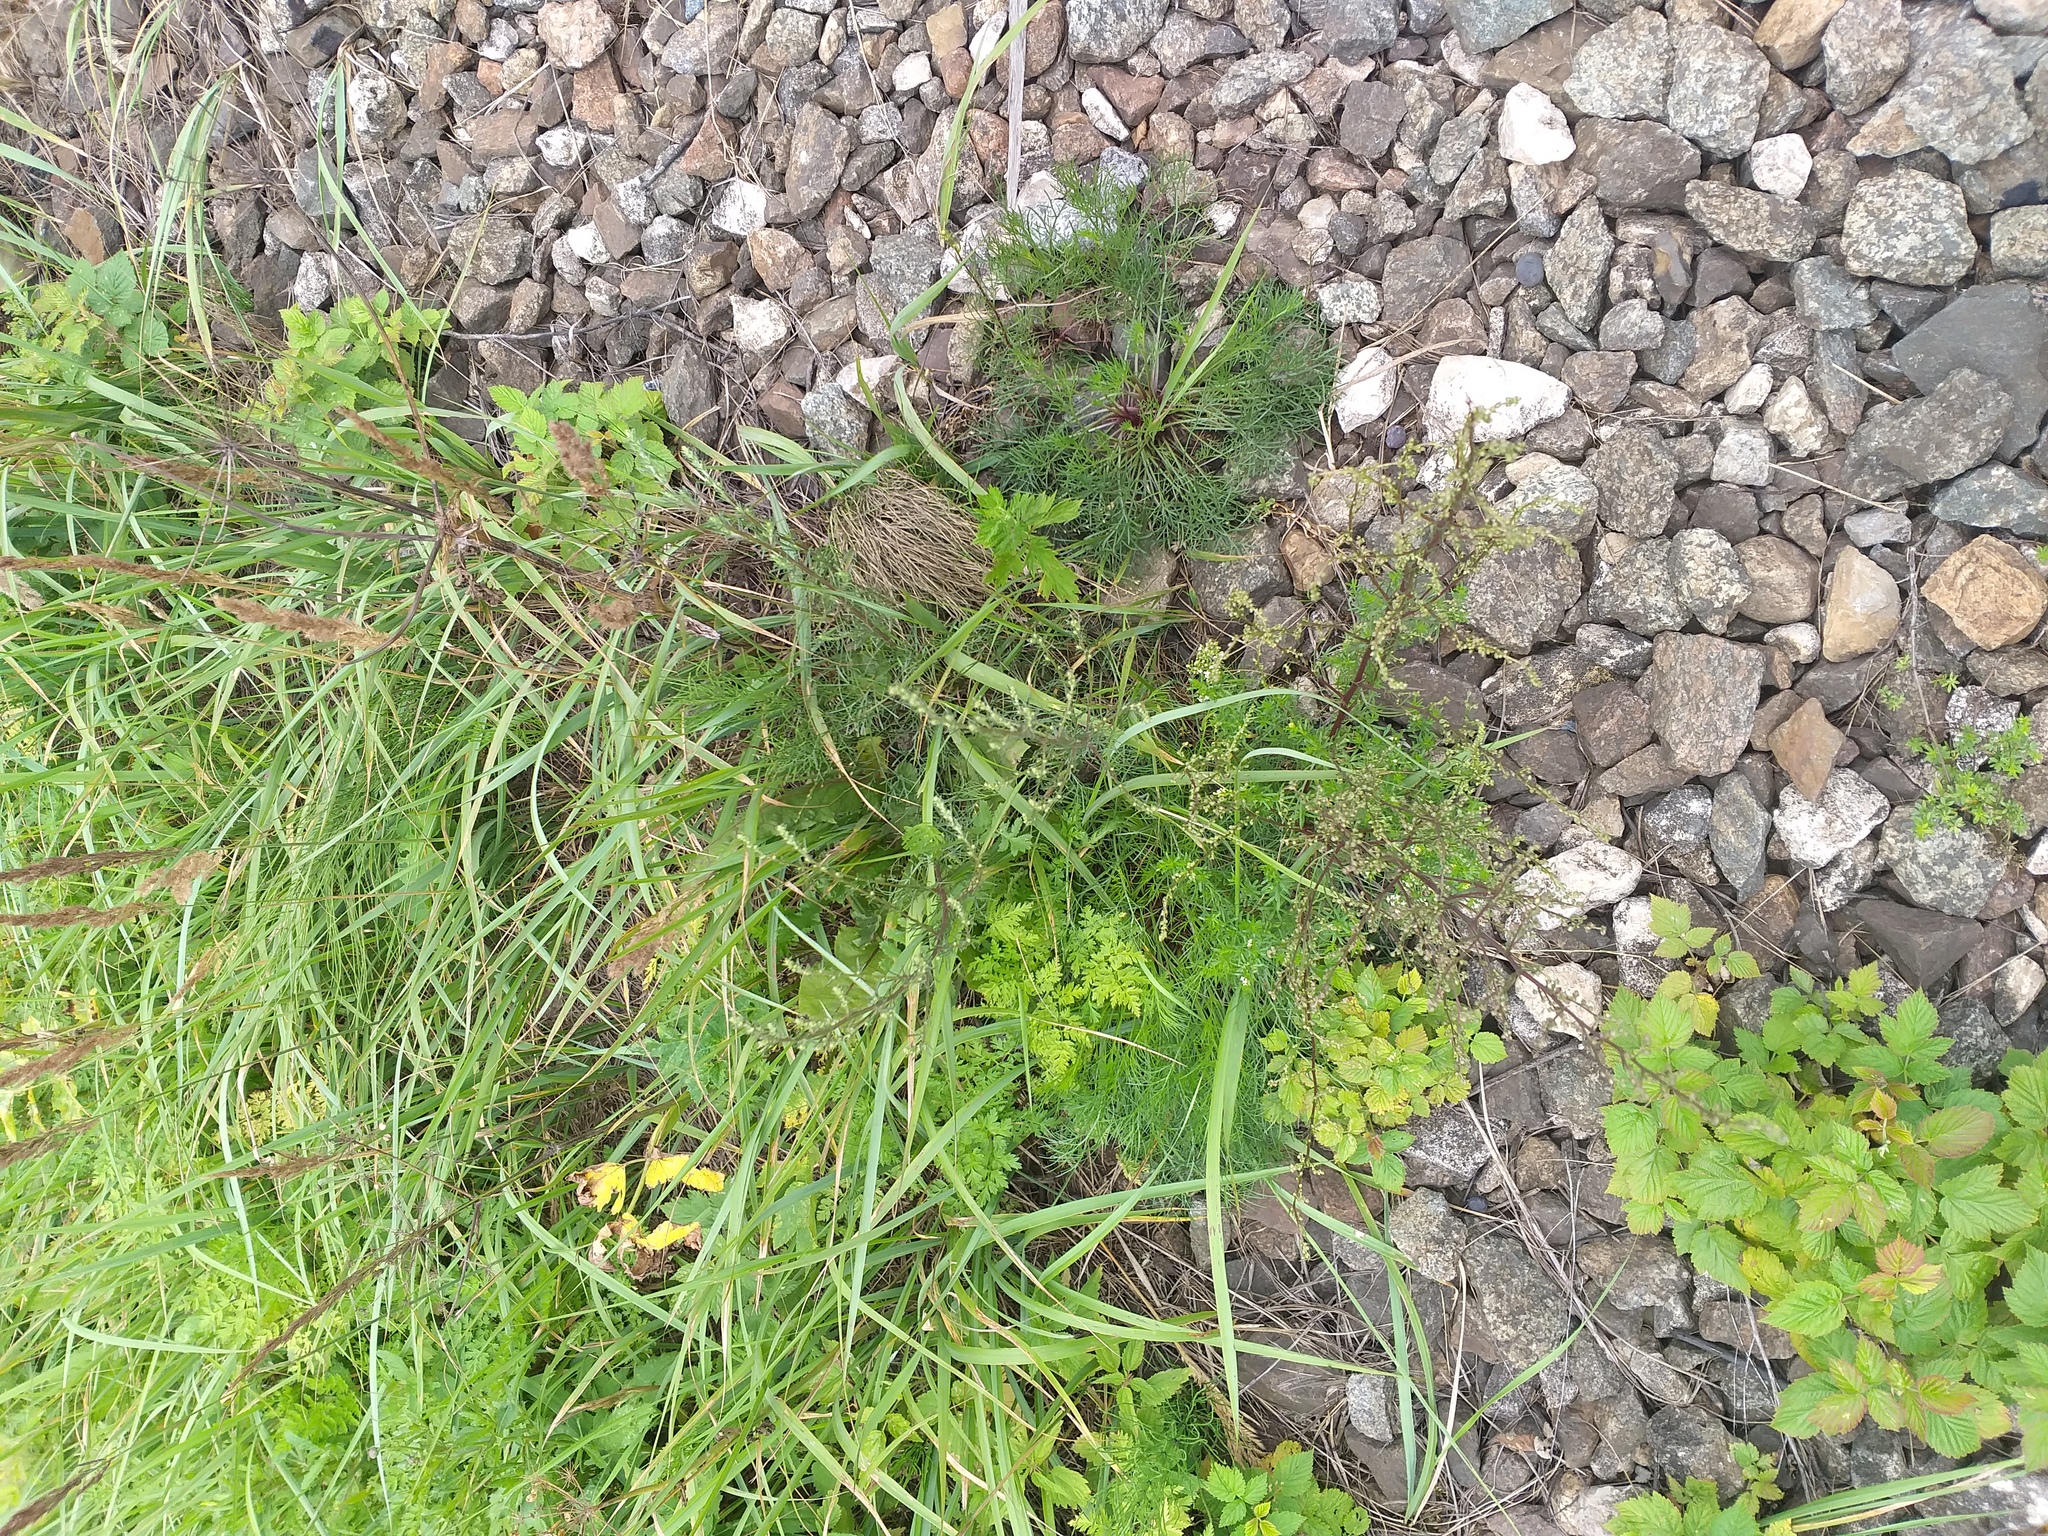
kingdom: Plantae
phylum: Tracheophyta
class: Magnoliopsida
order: Asterales
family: Asteraceae
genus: Artemisia
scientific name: Artemisia campestris
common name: Field wormwood
